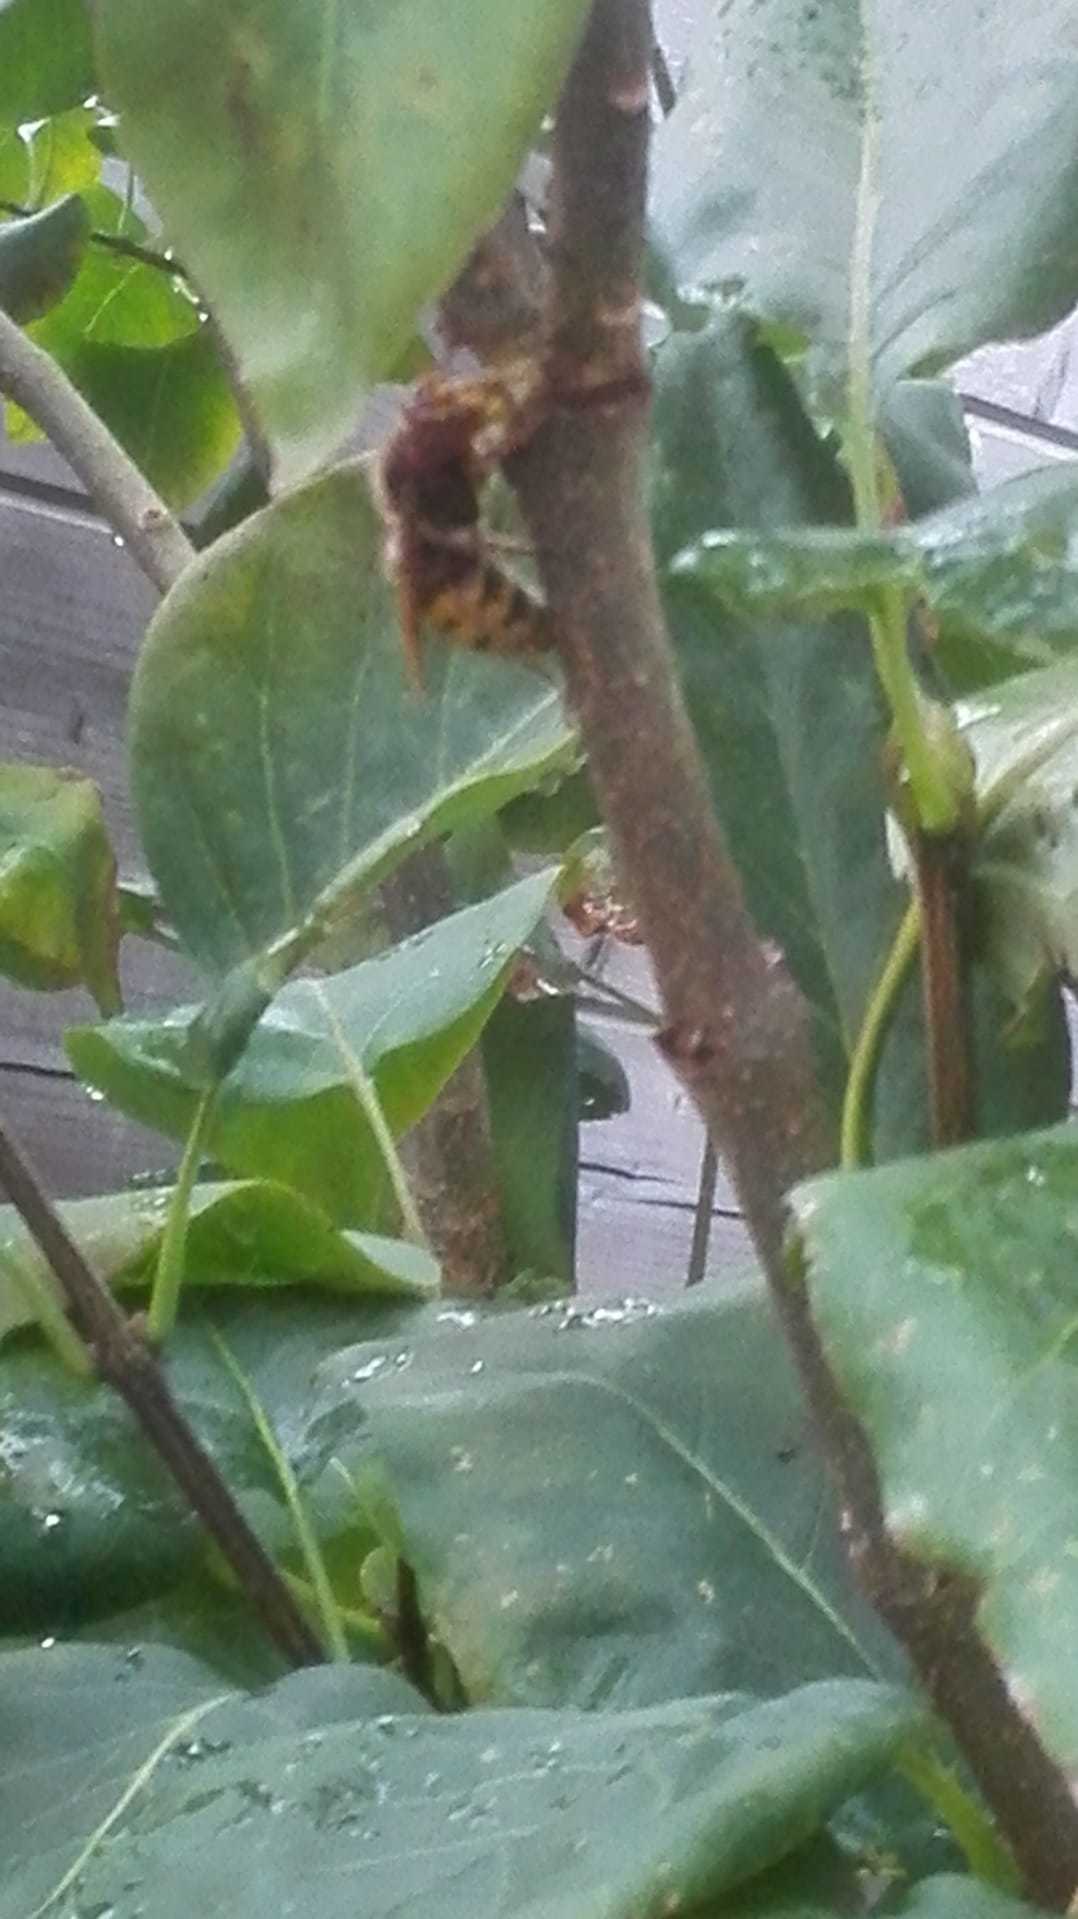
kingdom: Animalia
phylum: Arthropoda
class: Insecta
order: Hymenoptera
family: Vespidae
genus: Vespa
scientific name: Vespa crabro
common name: Hornet
